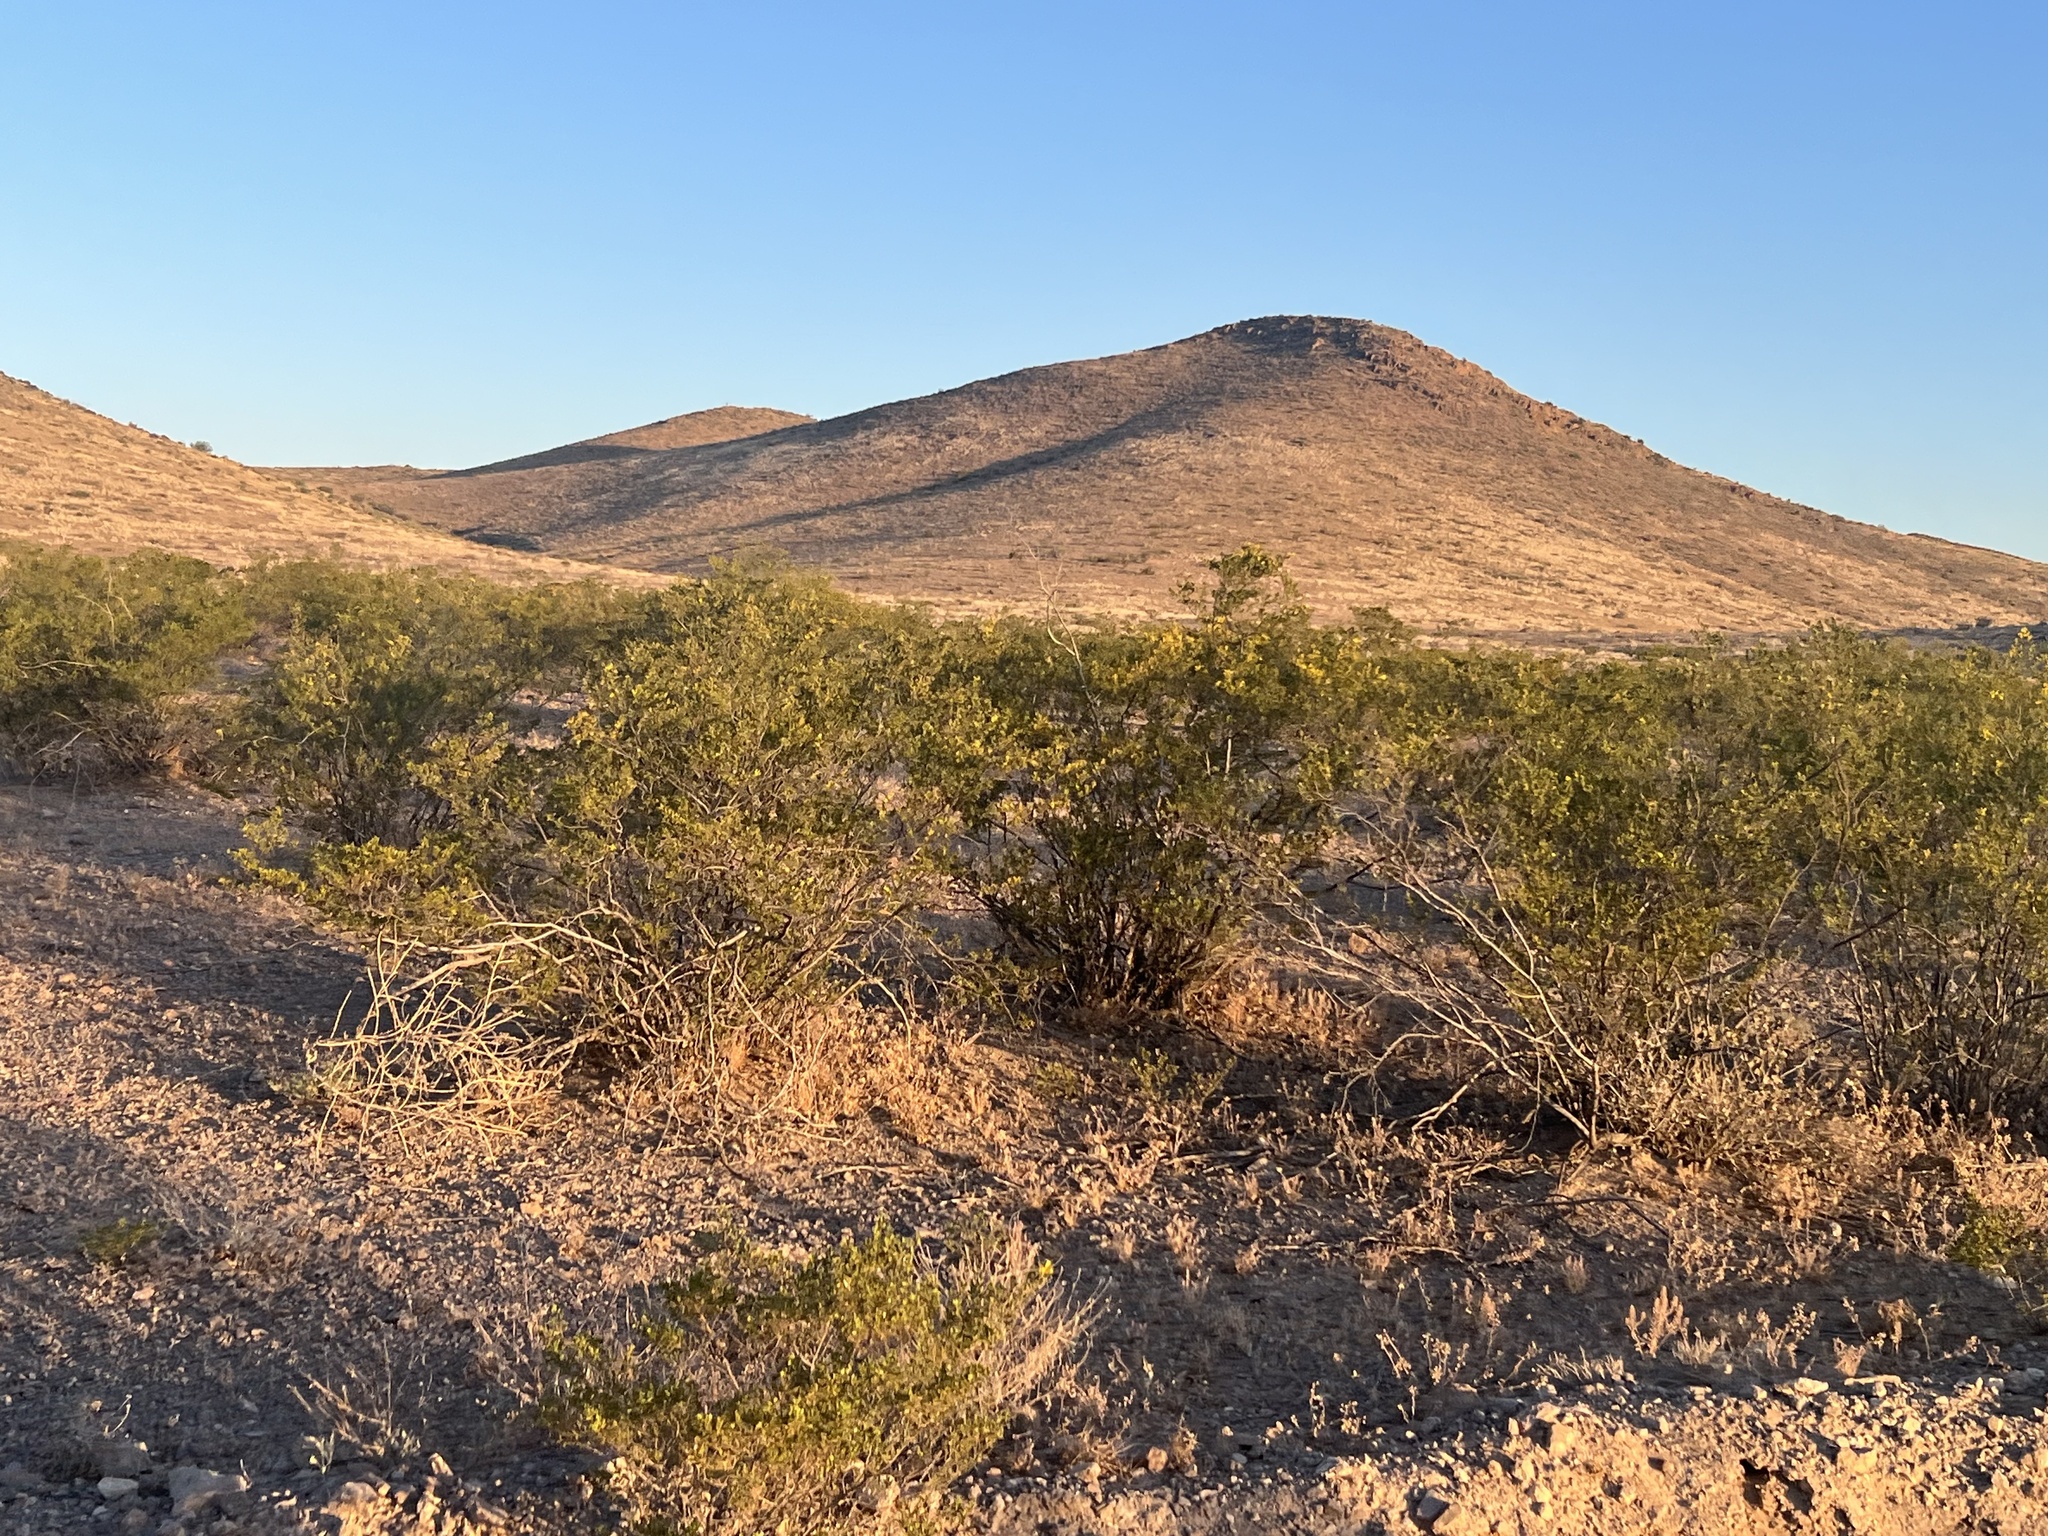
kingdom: Plantae
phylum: Tracheophyta
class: Magnoliopsida
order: Zygophyllales
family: Zygophyllaceae
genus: Larrea
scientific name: Larrea tridentata
